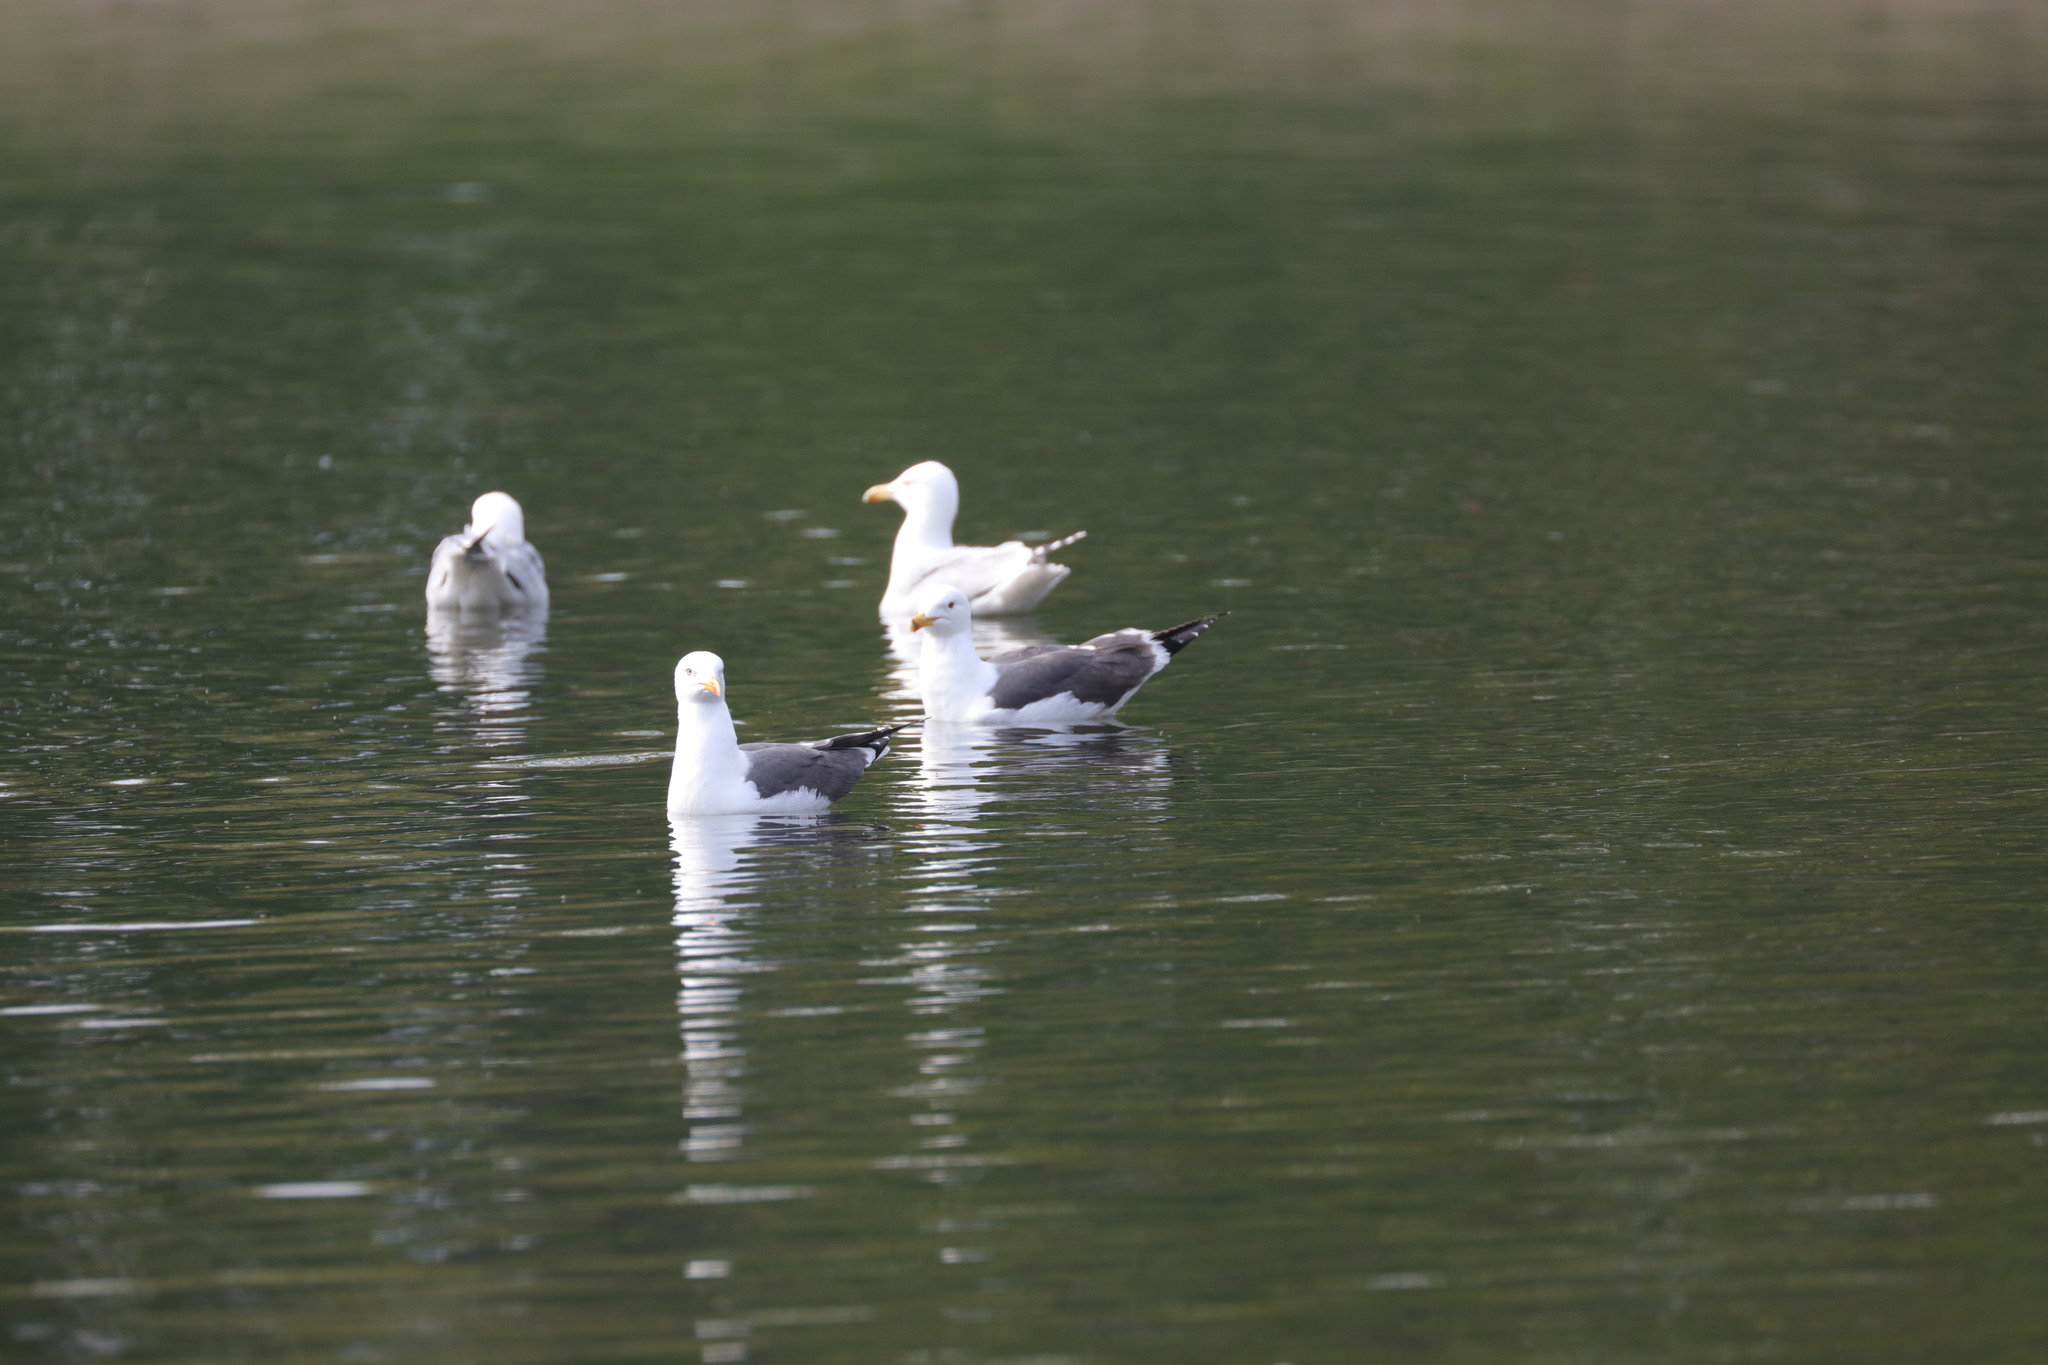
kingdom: Animalia
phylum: Chordata
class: Aves
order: Charadriiformes
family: Laridae
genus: Larus
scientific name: Larus fuscus
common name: Lesser black-backed gull
